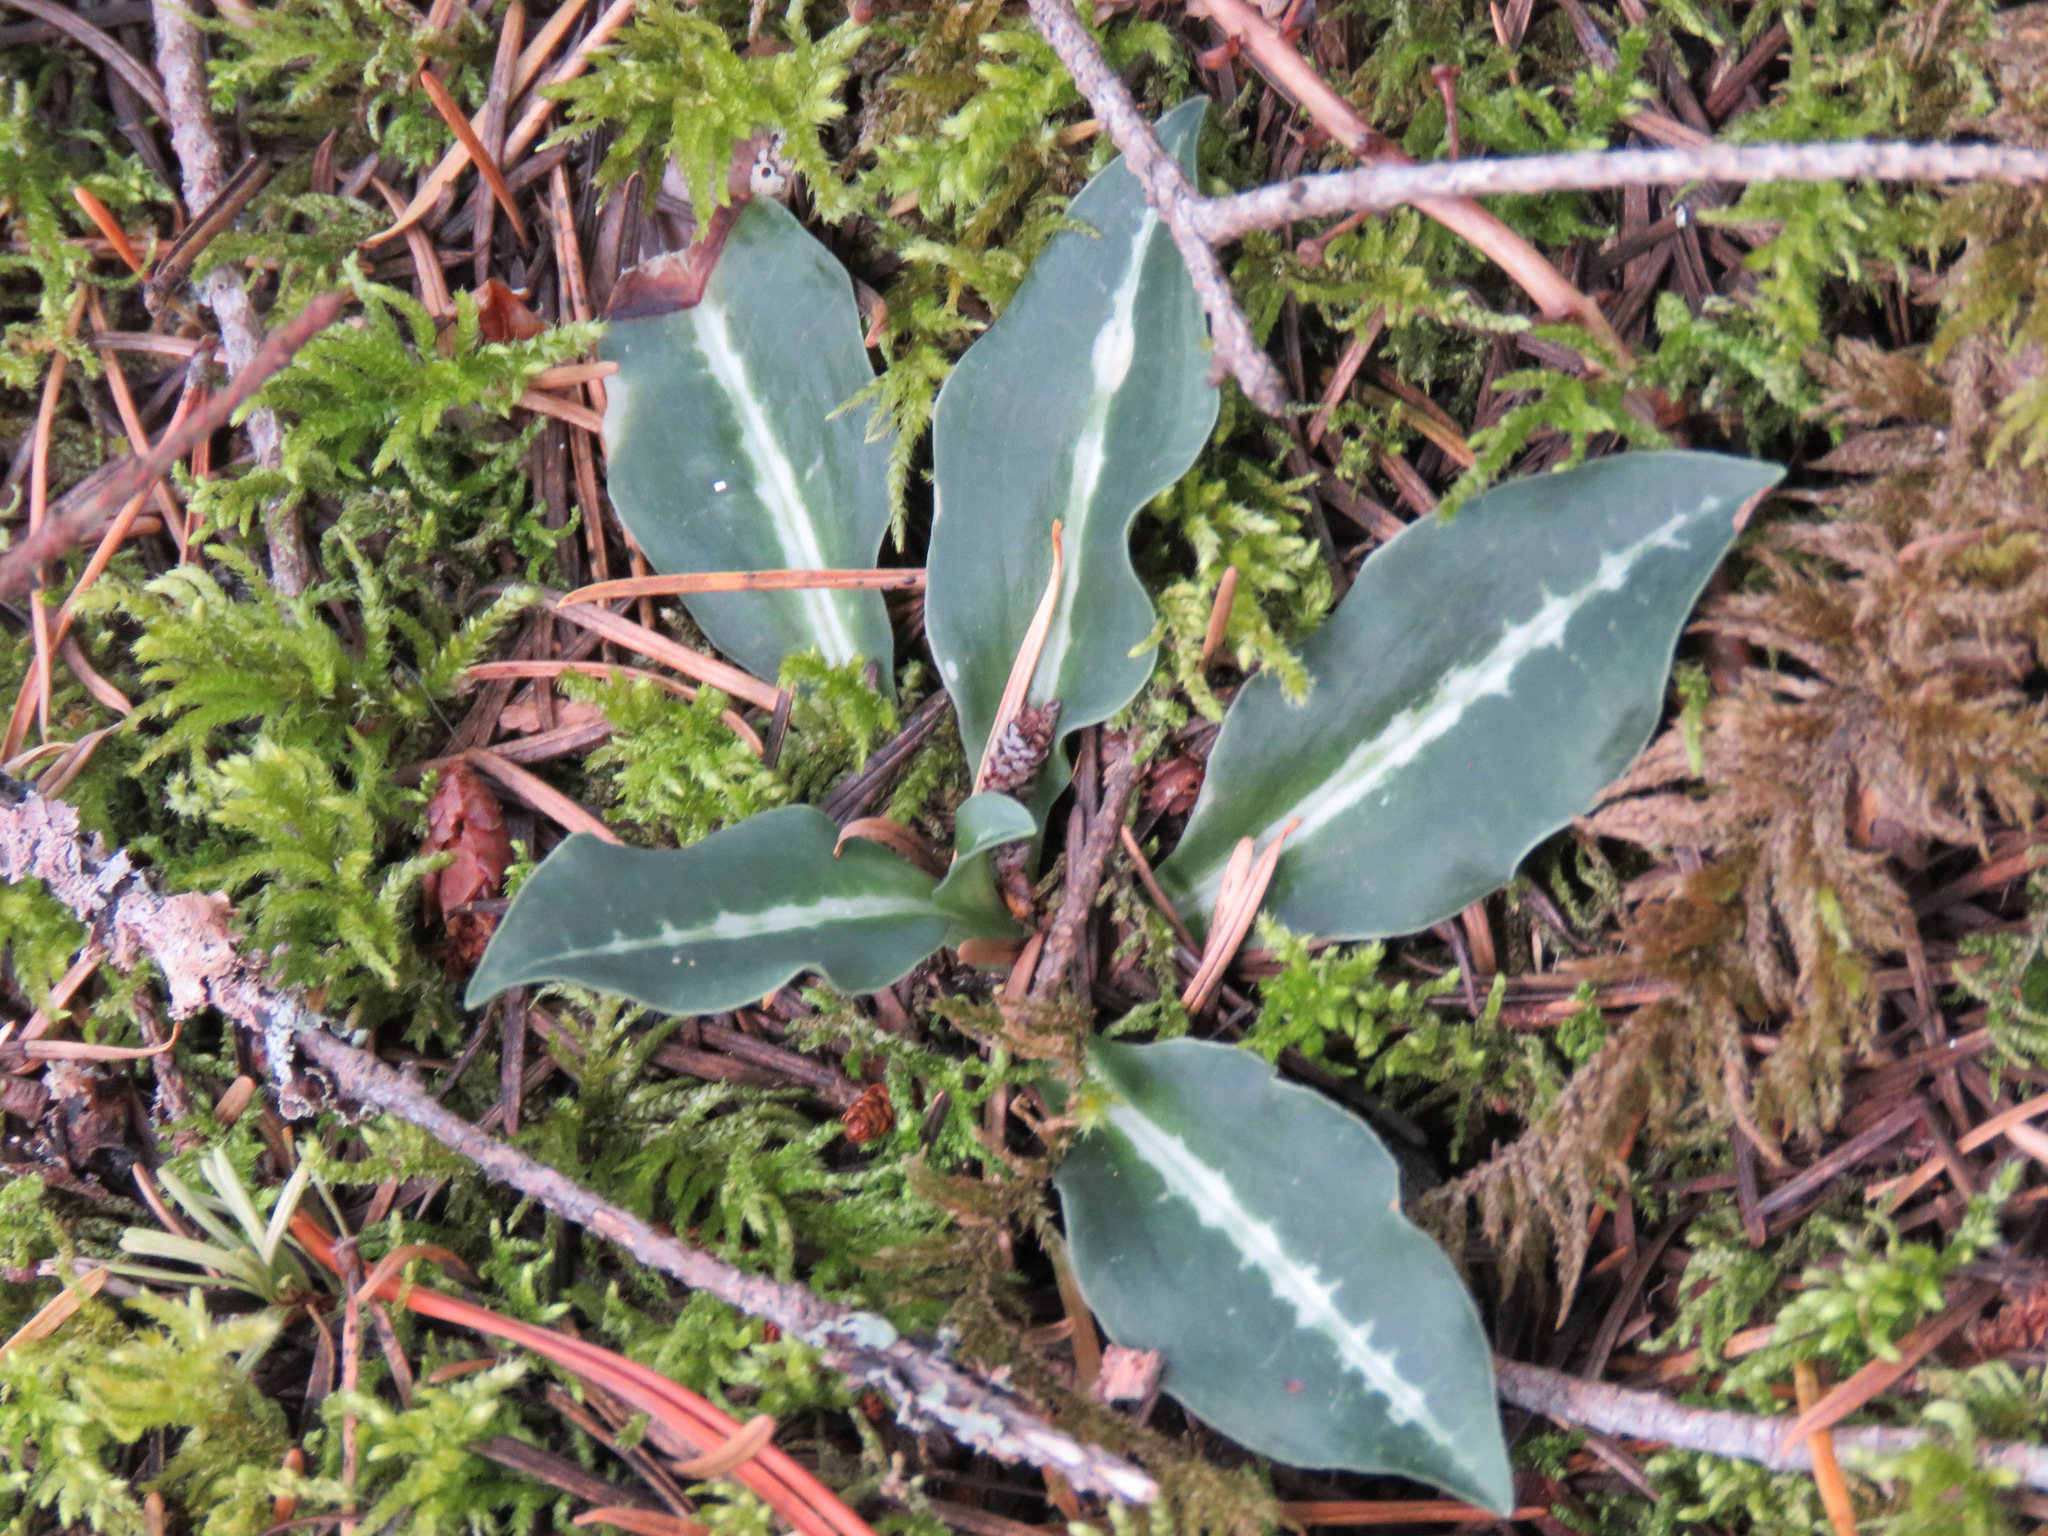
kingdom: Plantae
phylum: Tracheophyta
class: Liliopsida
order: Asparagales
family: Orchidaceae
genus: Goodyera
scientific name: Goodyera oblongifolia
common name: Giant rattlesnake-plantain
